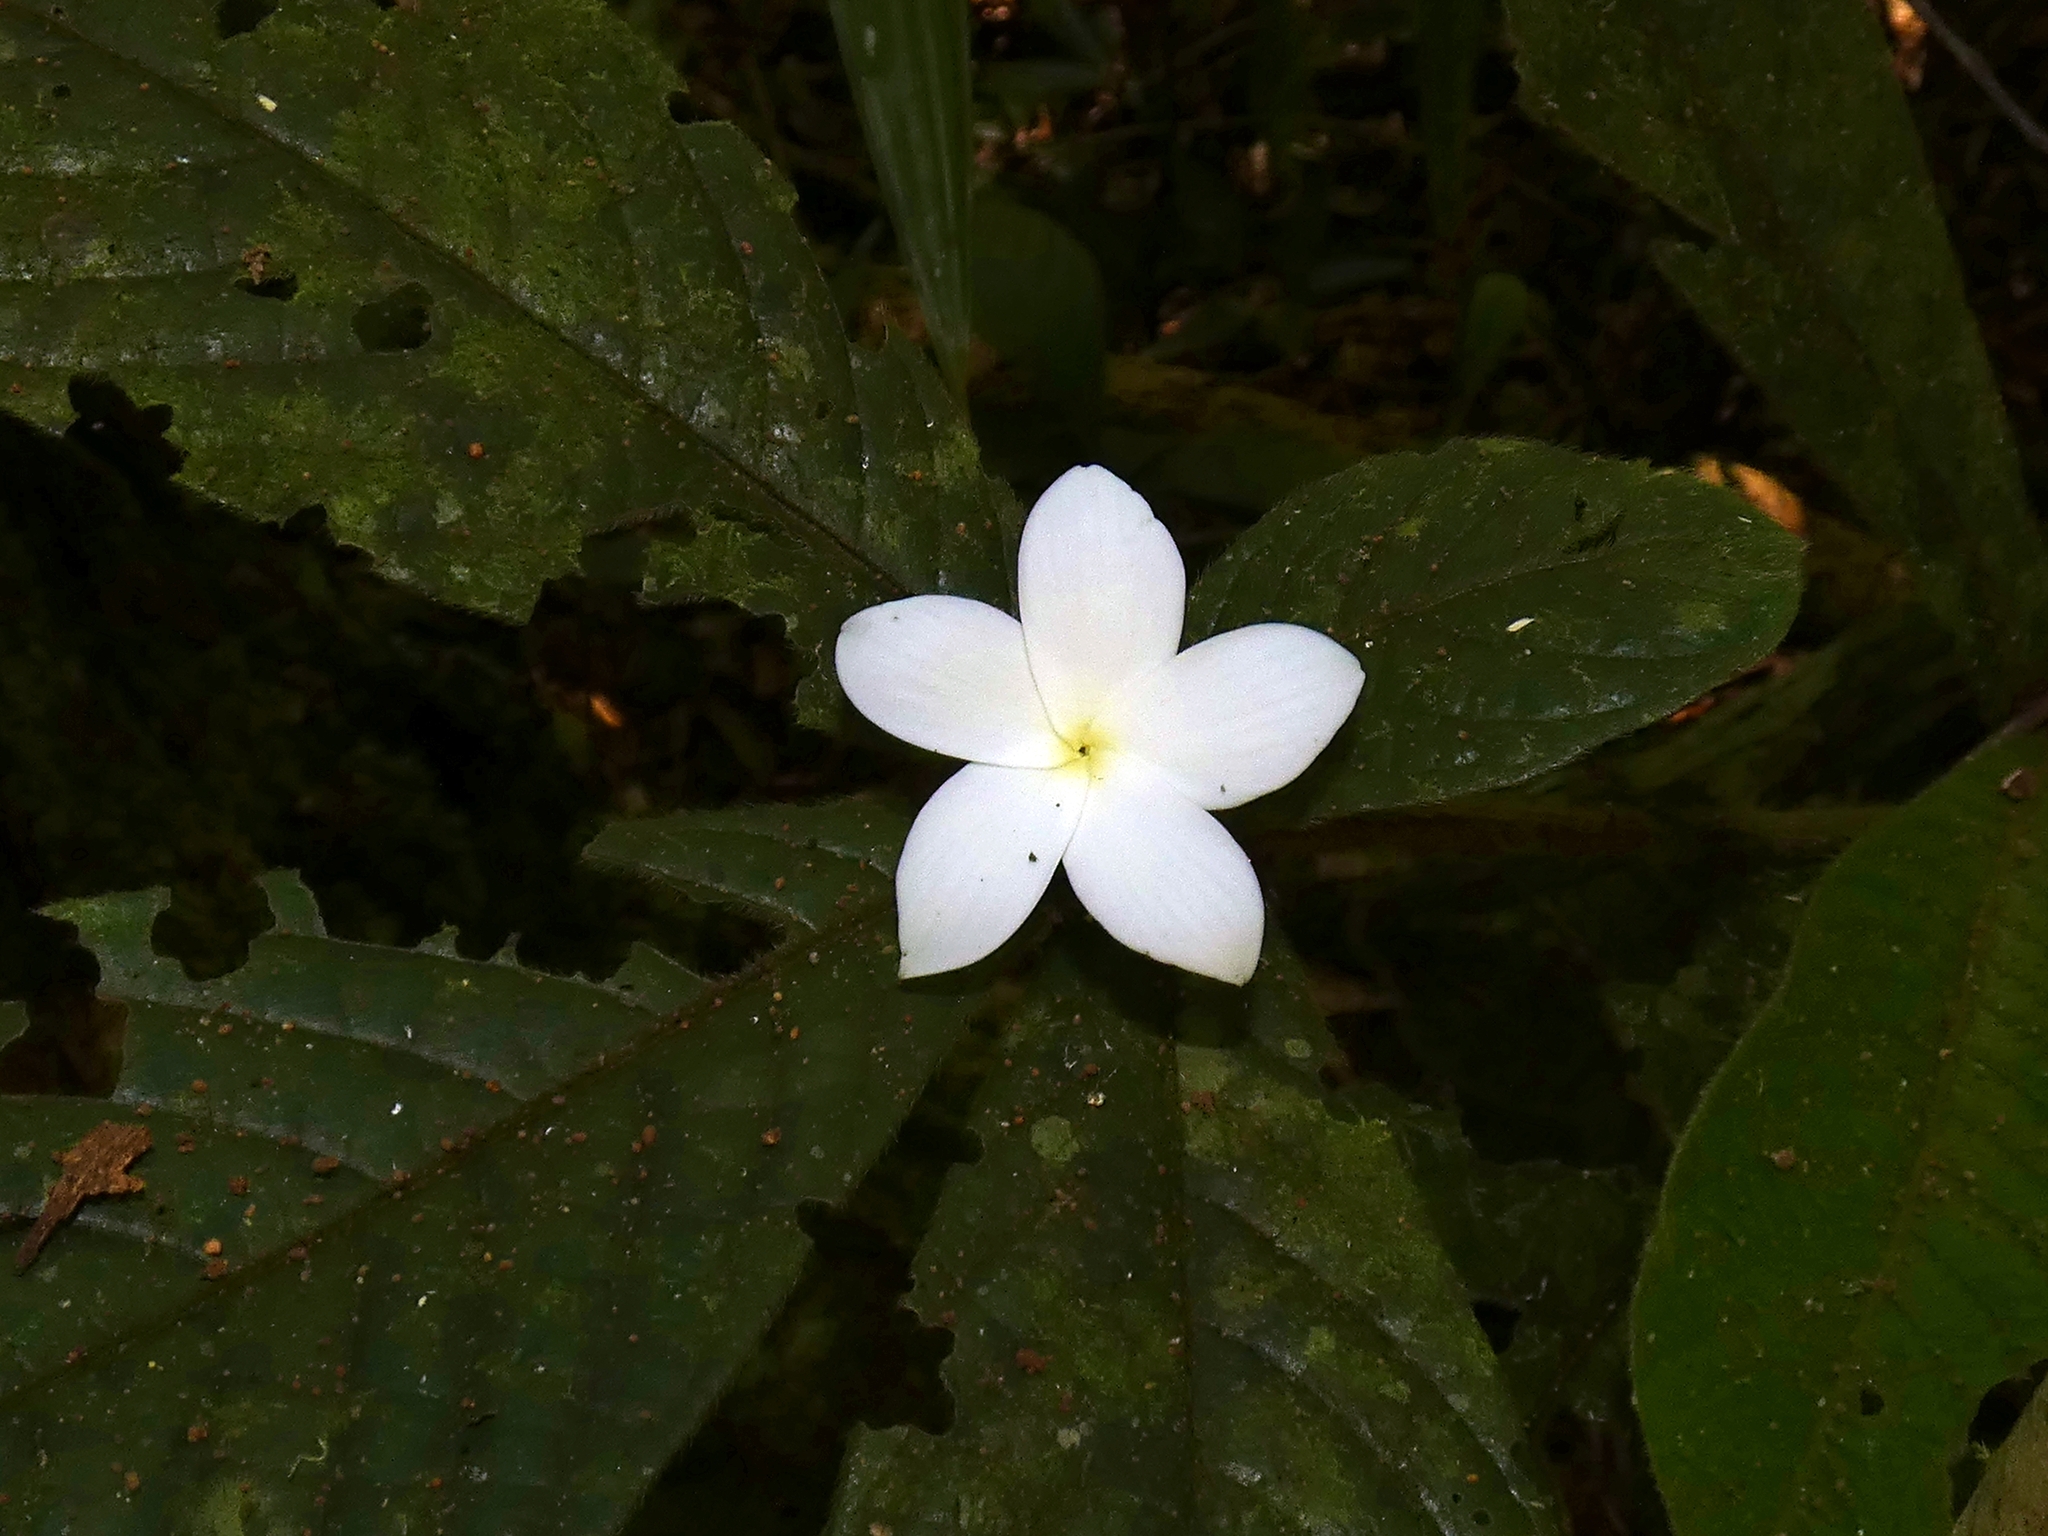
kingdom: Plantae
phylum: Tracheophyta
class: Magnoliopsida
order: Gentianales
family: Rubiaceae
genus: Atractocarpus
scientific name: Atractocarpus hirtus
